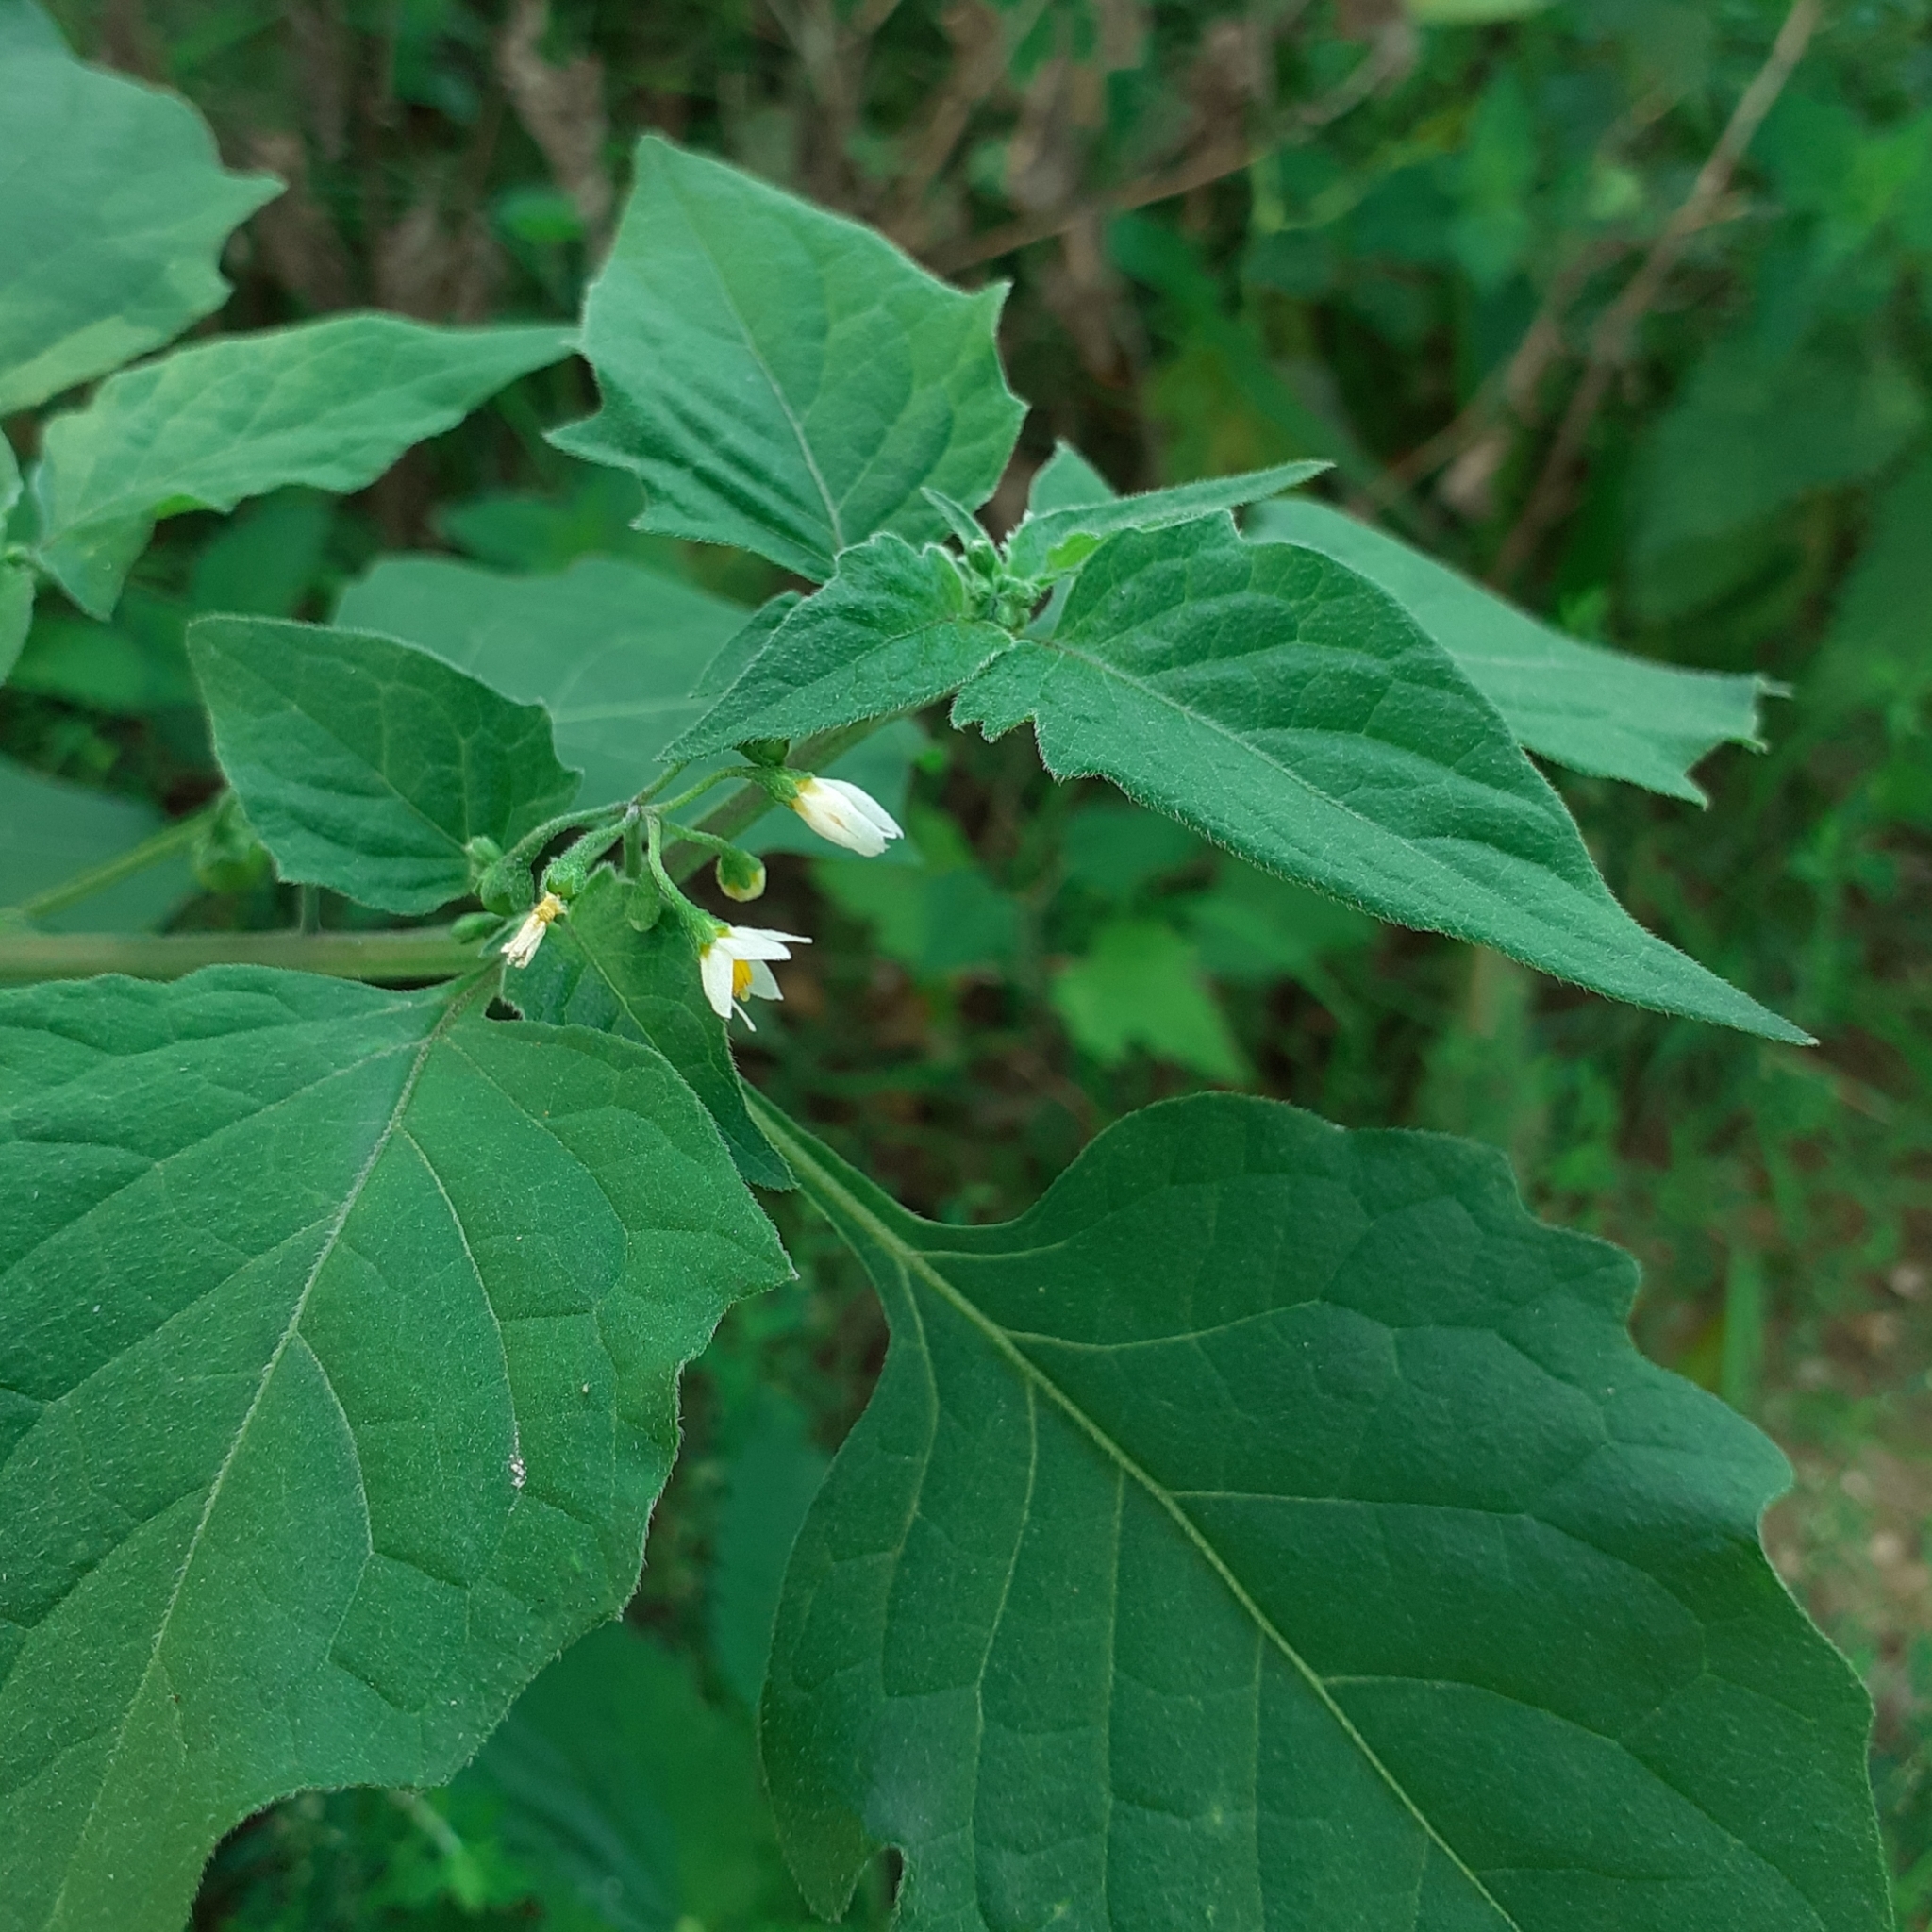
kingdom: Plantae
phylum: Tracheophyta
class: Magnoliopsida
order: Solanales
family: Solanaceae
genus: Solanum
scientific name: Solanum nigrum
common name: Black nightshade
